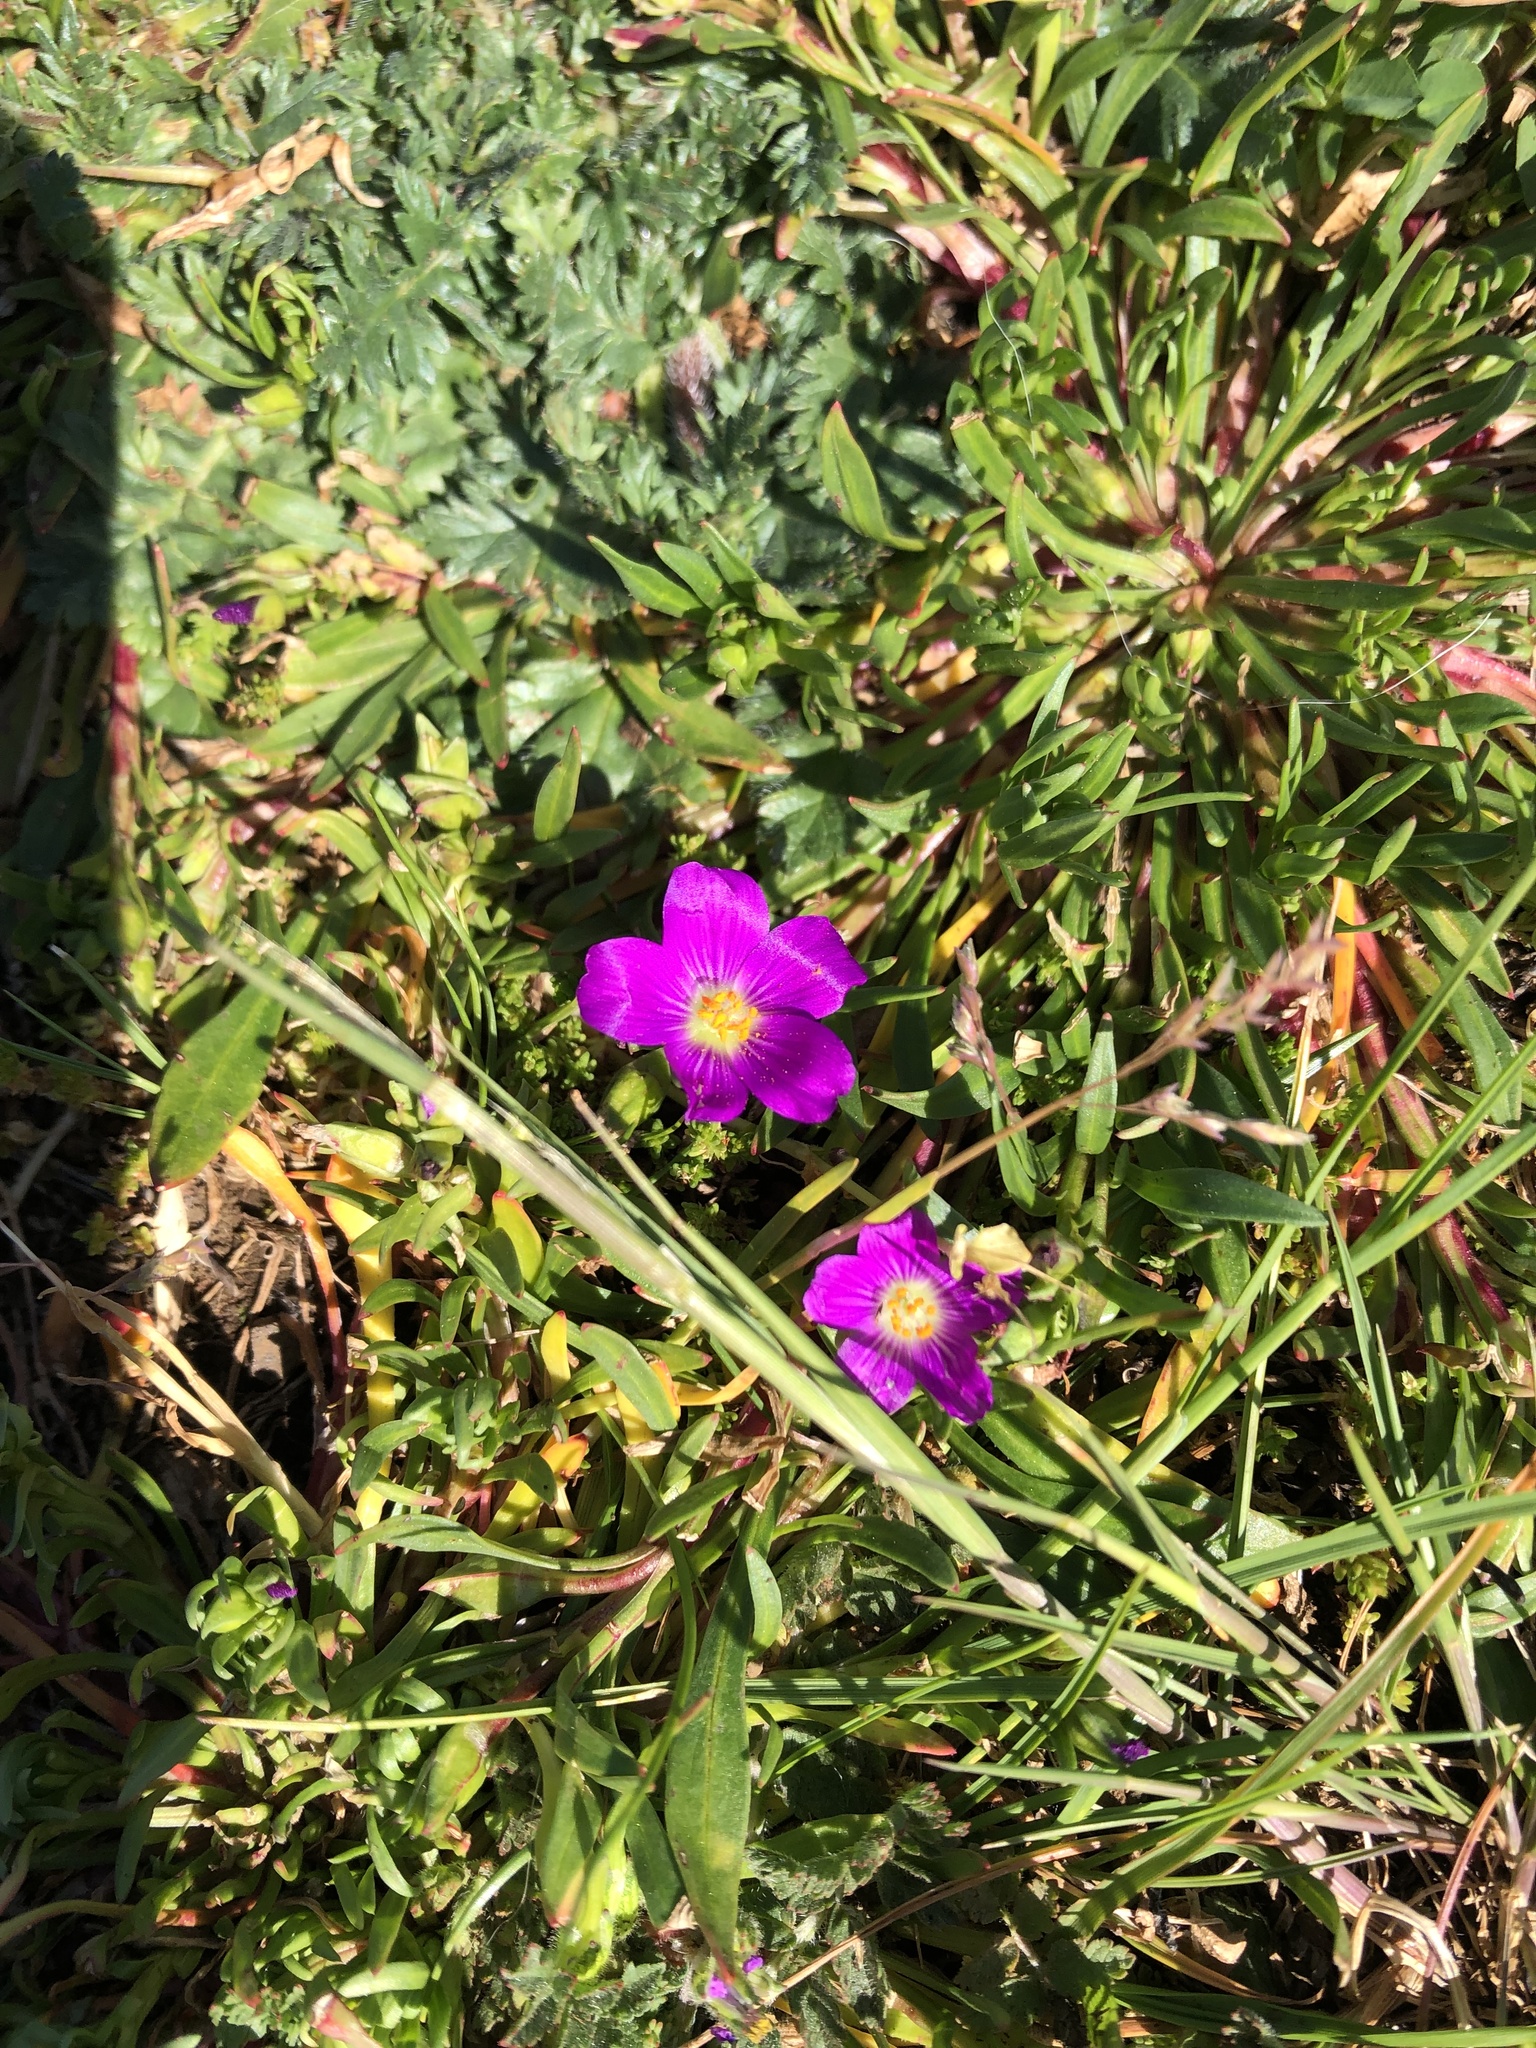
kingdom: Plantae
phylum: Tracheophyta
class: Magnoliopsida
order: Caryophyllales
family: Montiaceae
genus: Calandrinia
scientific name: Calandrinia menziesii
